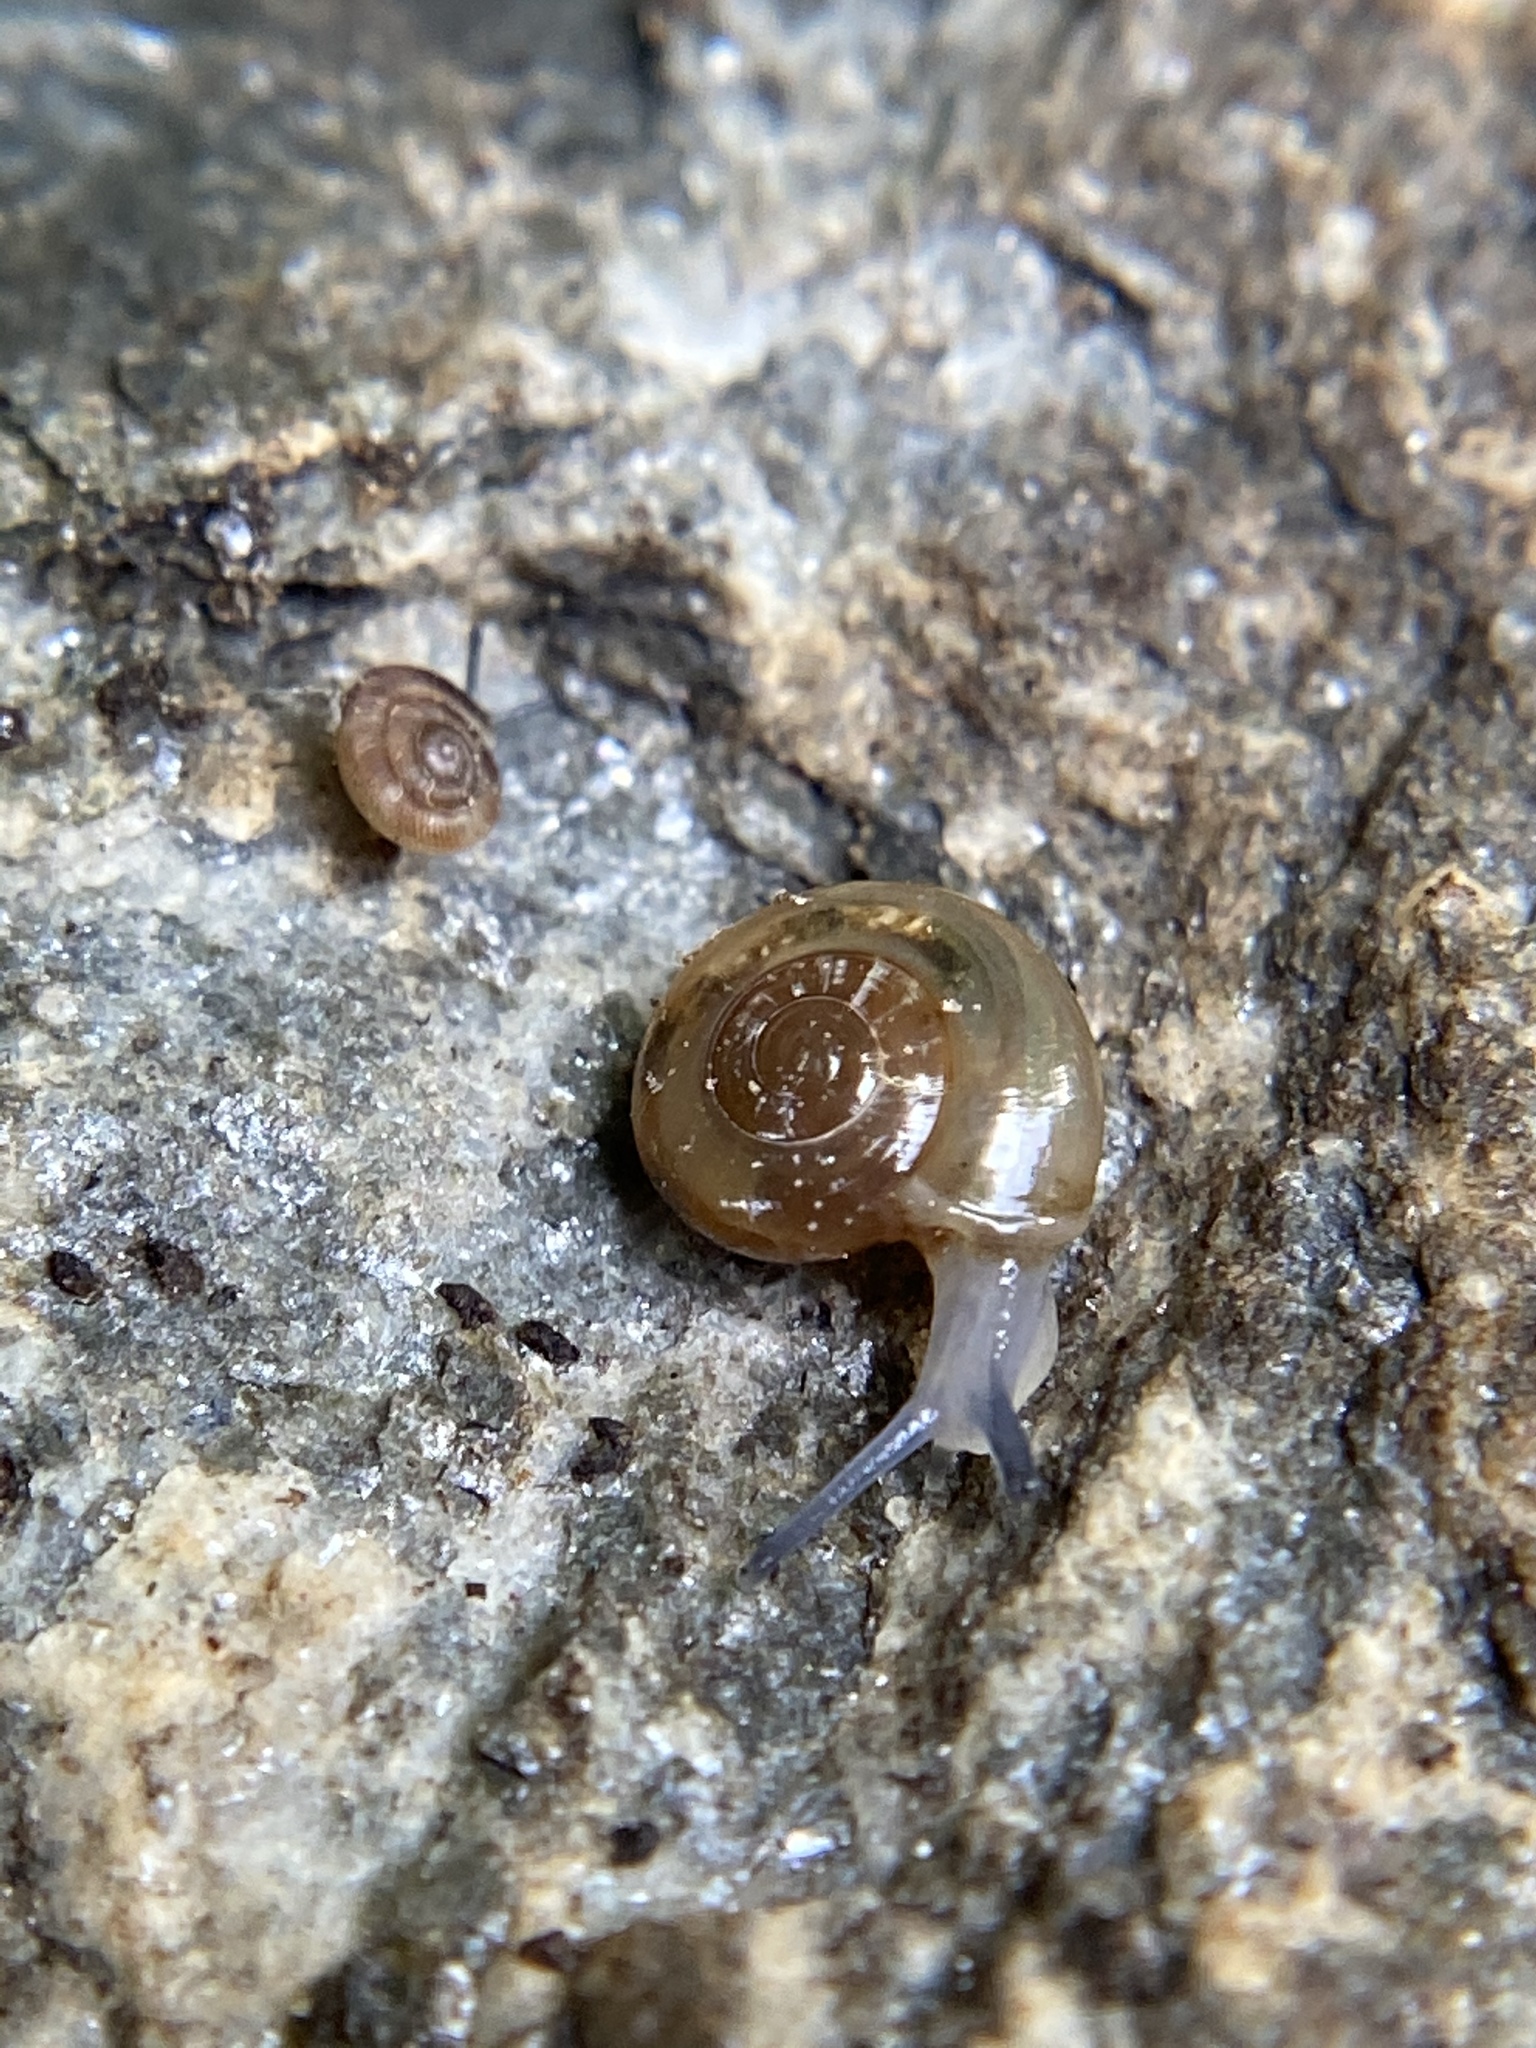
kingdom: Animalia
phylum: Mollusca
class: Gastropoda
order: Stylommatophora
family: Oxychilidae
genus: Oxychilus
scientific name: Oxychilus draparnaudi
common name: Draparnaud's glass snail
